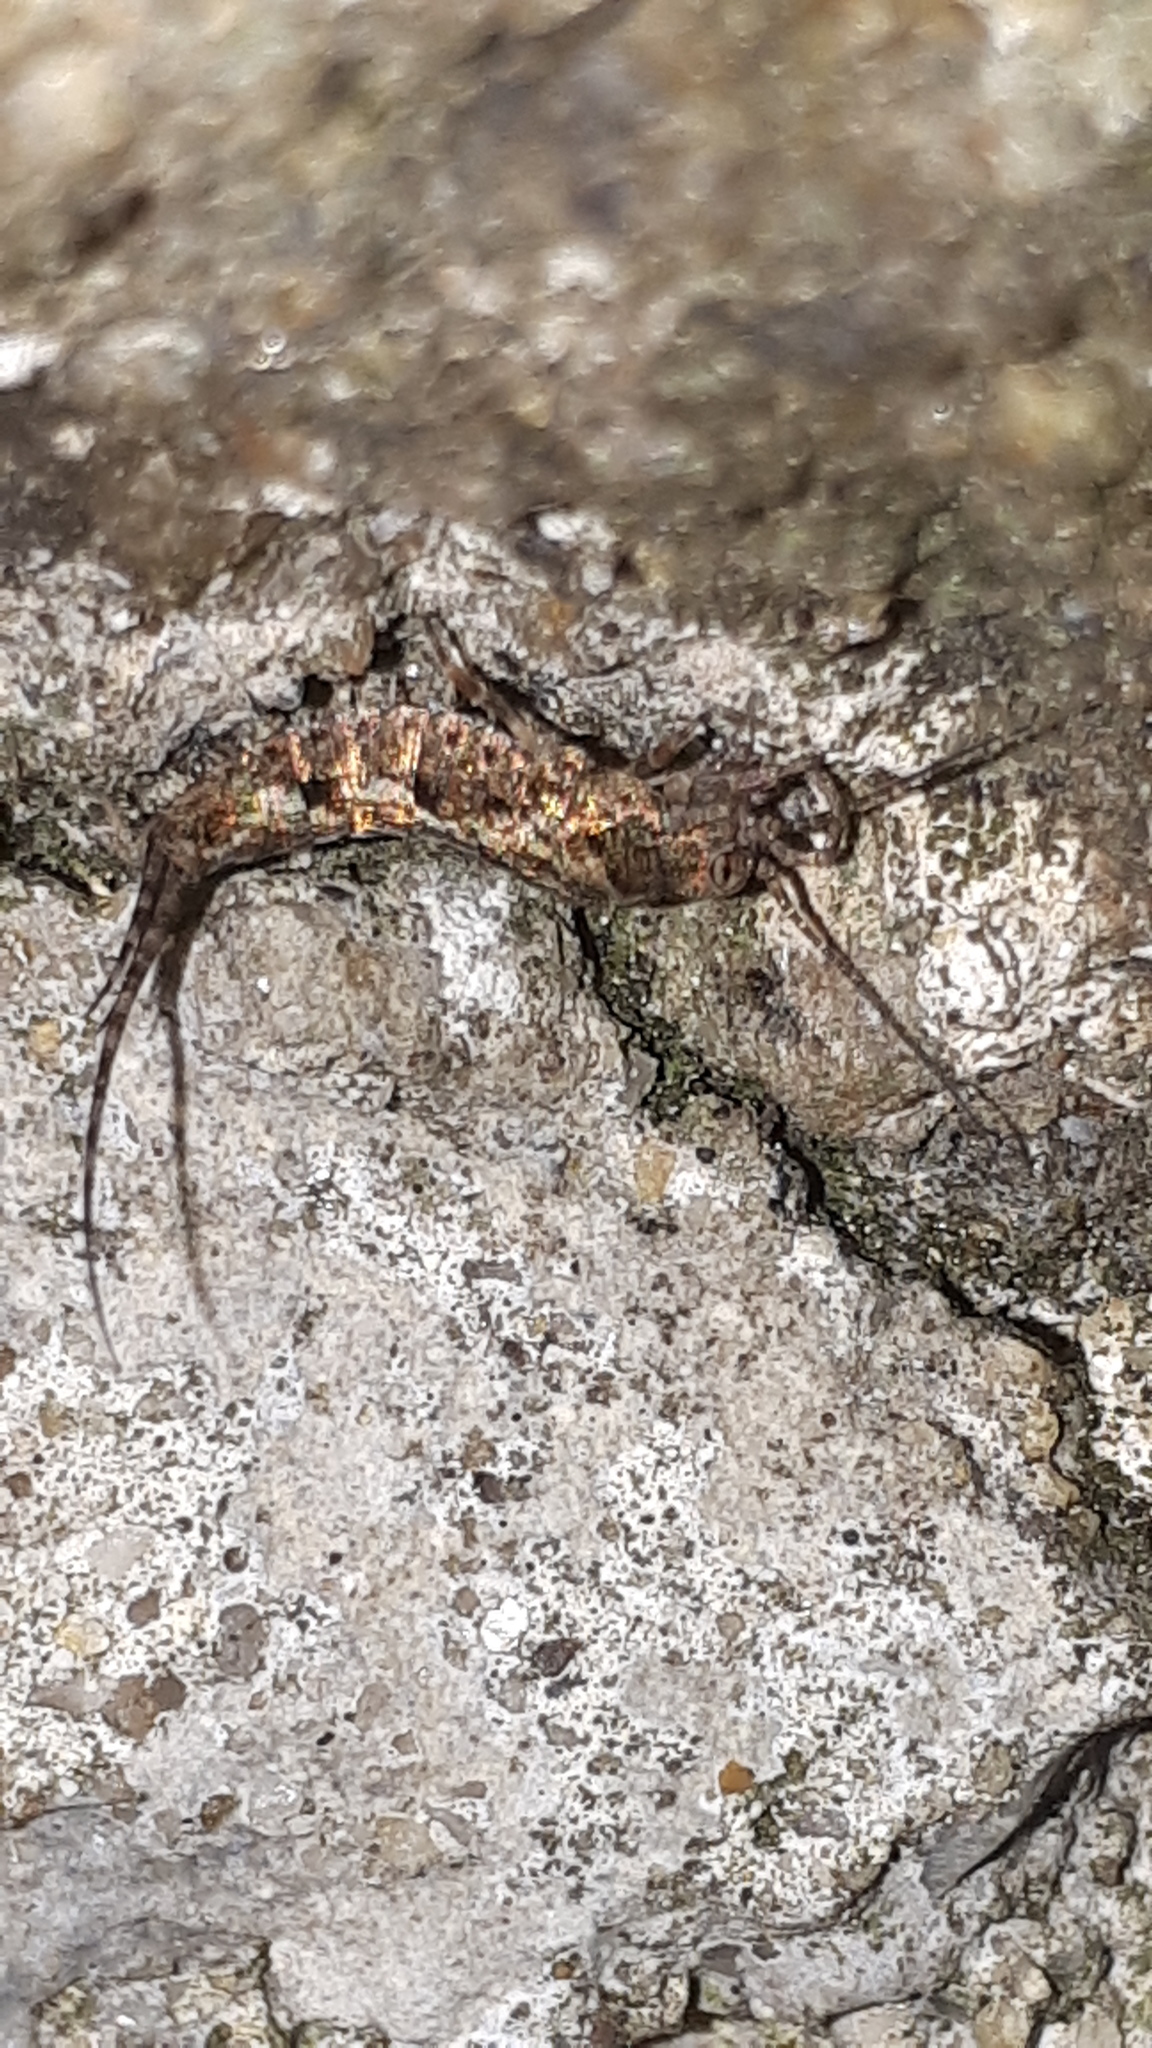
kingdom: Animalia
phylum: Arthropoda
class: Insecta
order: Archaeognatha
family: Machilidae
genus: Lepismachilis
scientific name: Lepismachilis y-signata
